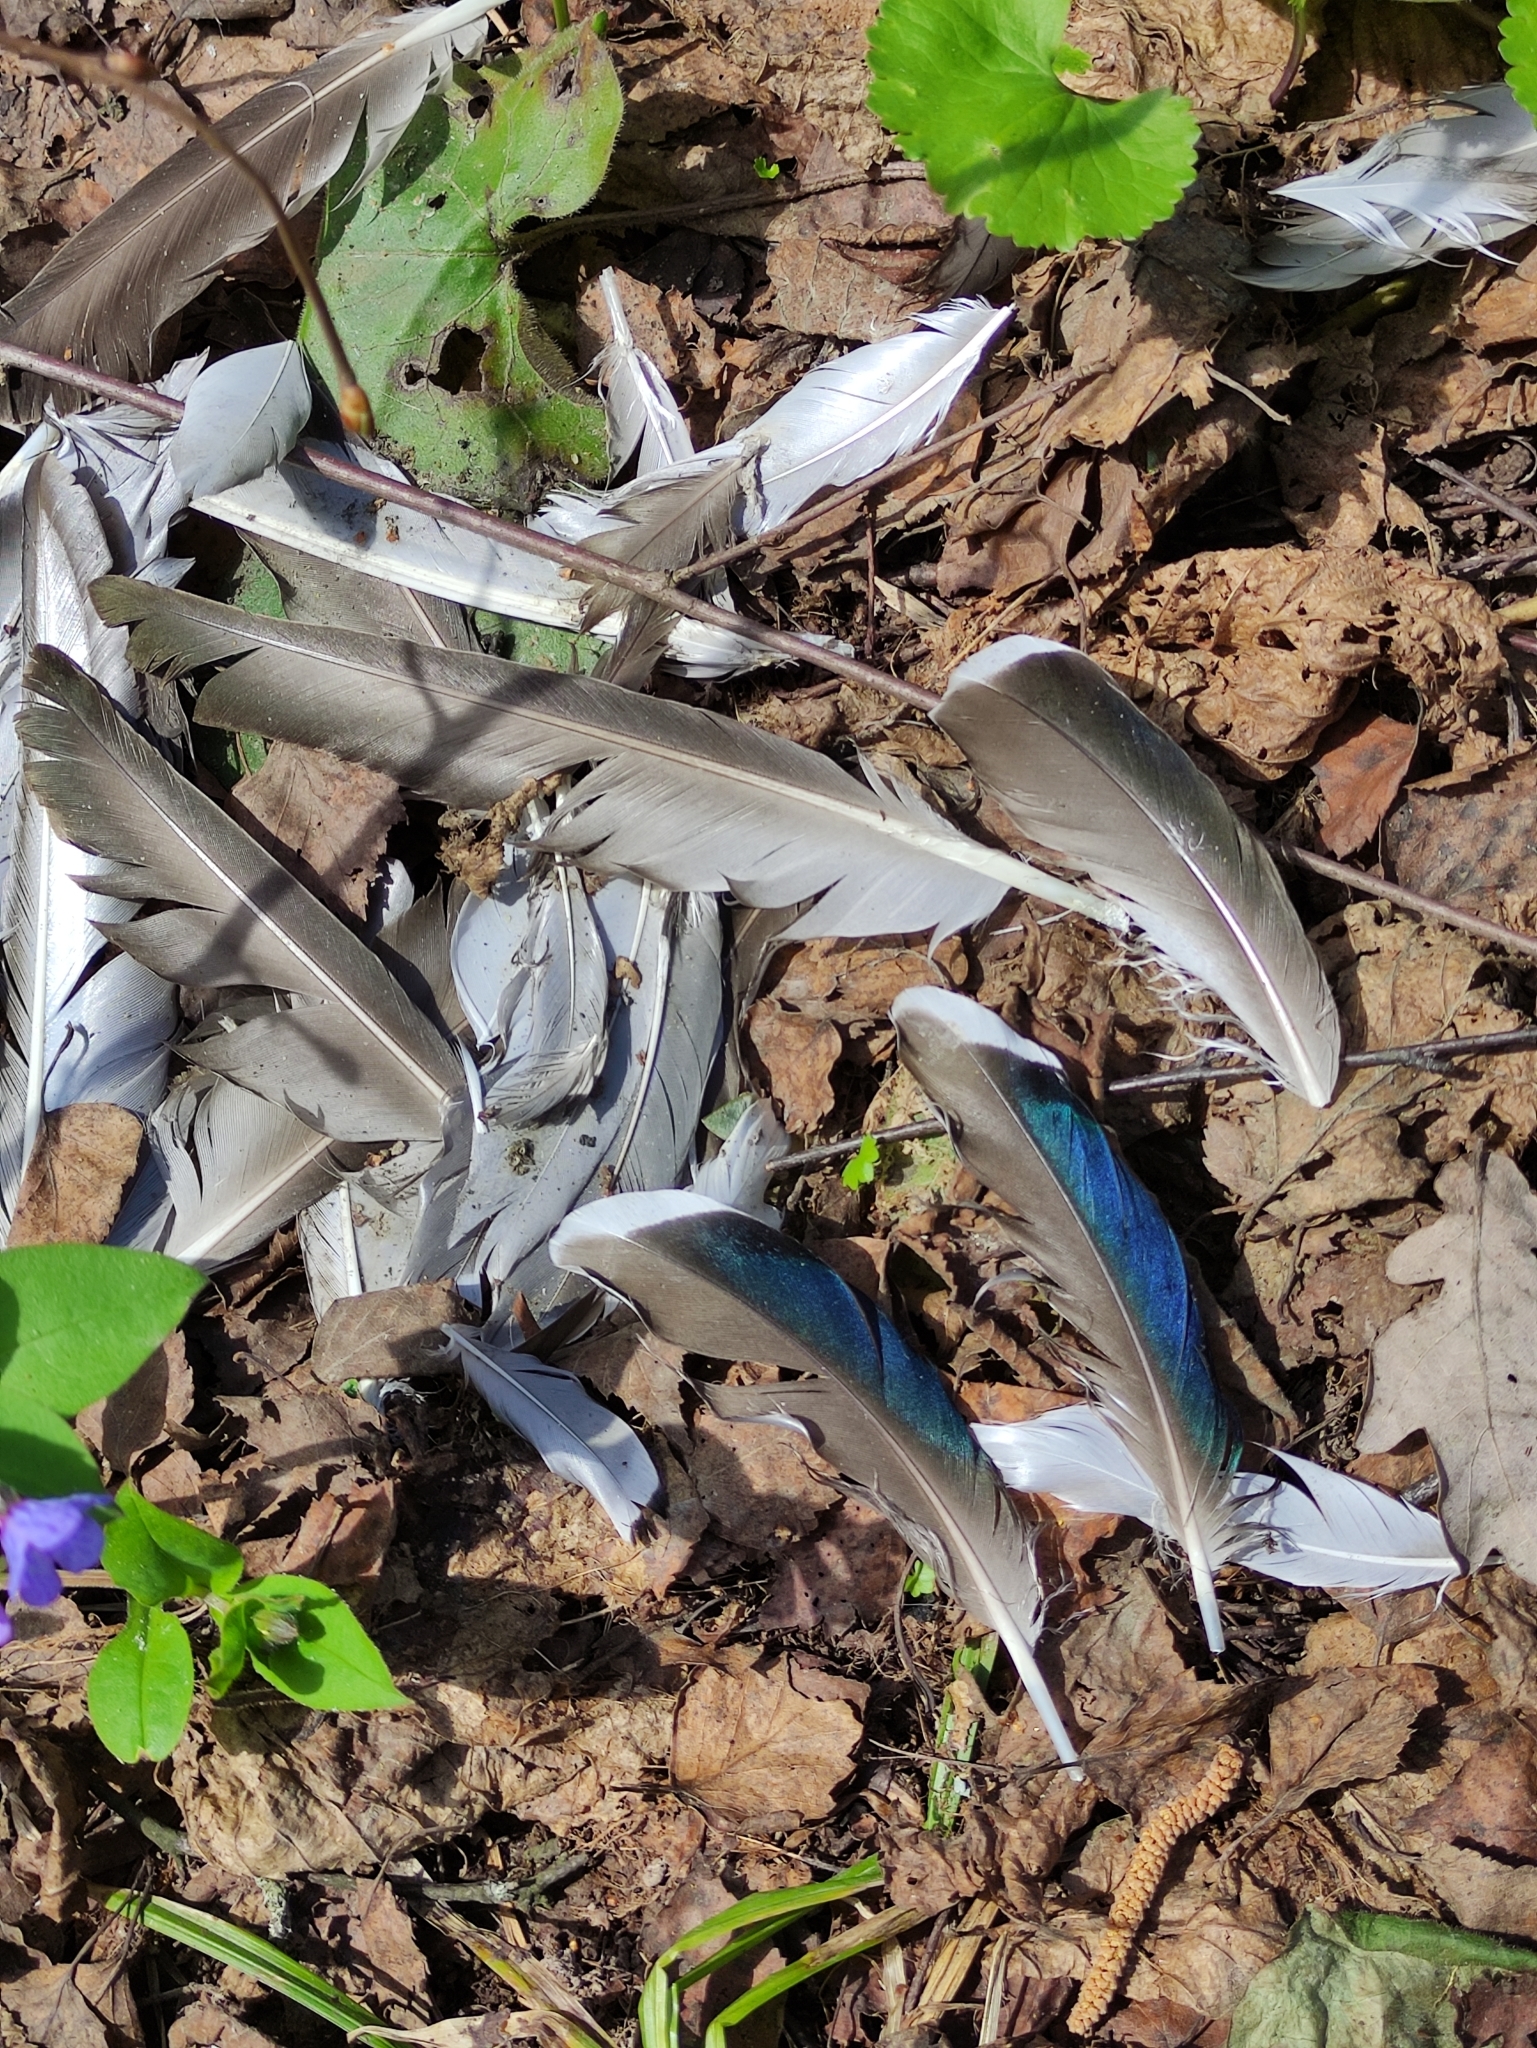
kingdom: Animalia
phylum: Chordata
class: Aves
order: Anseriformes
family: Anatidae
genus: Anas
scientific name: Anas platyrhynchos
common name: Mallard
